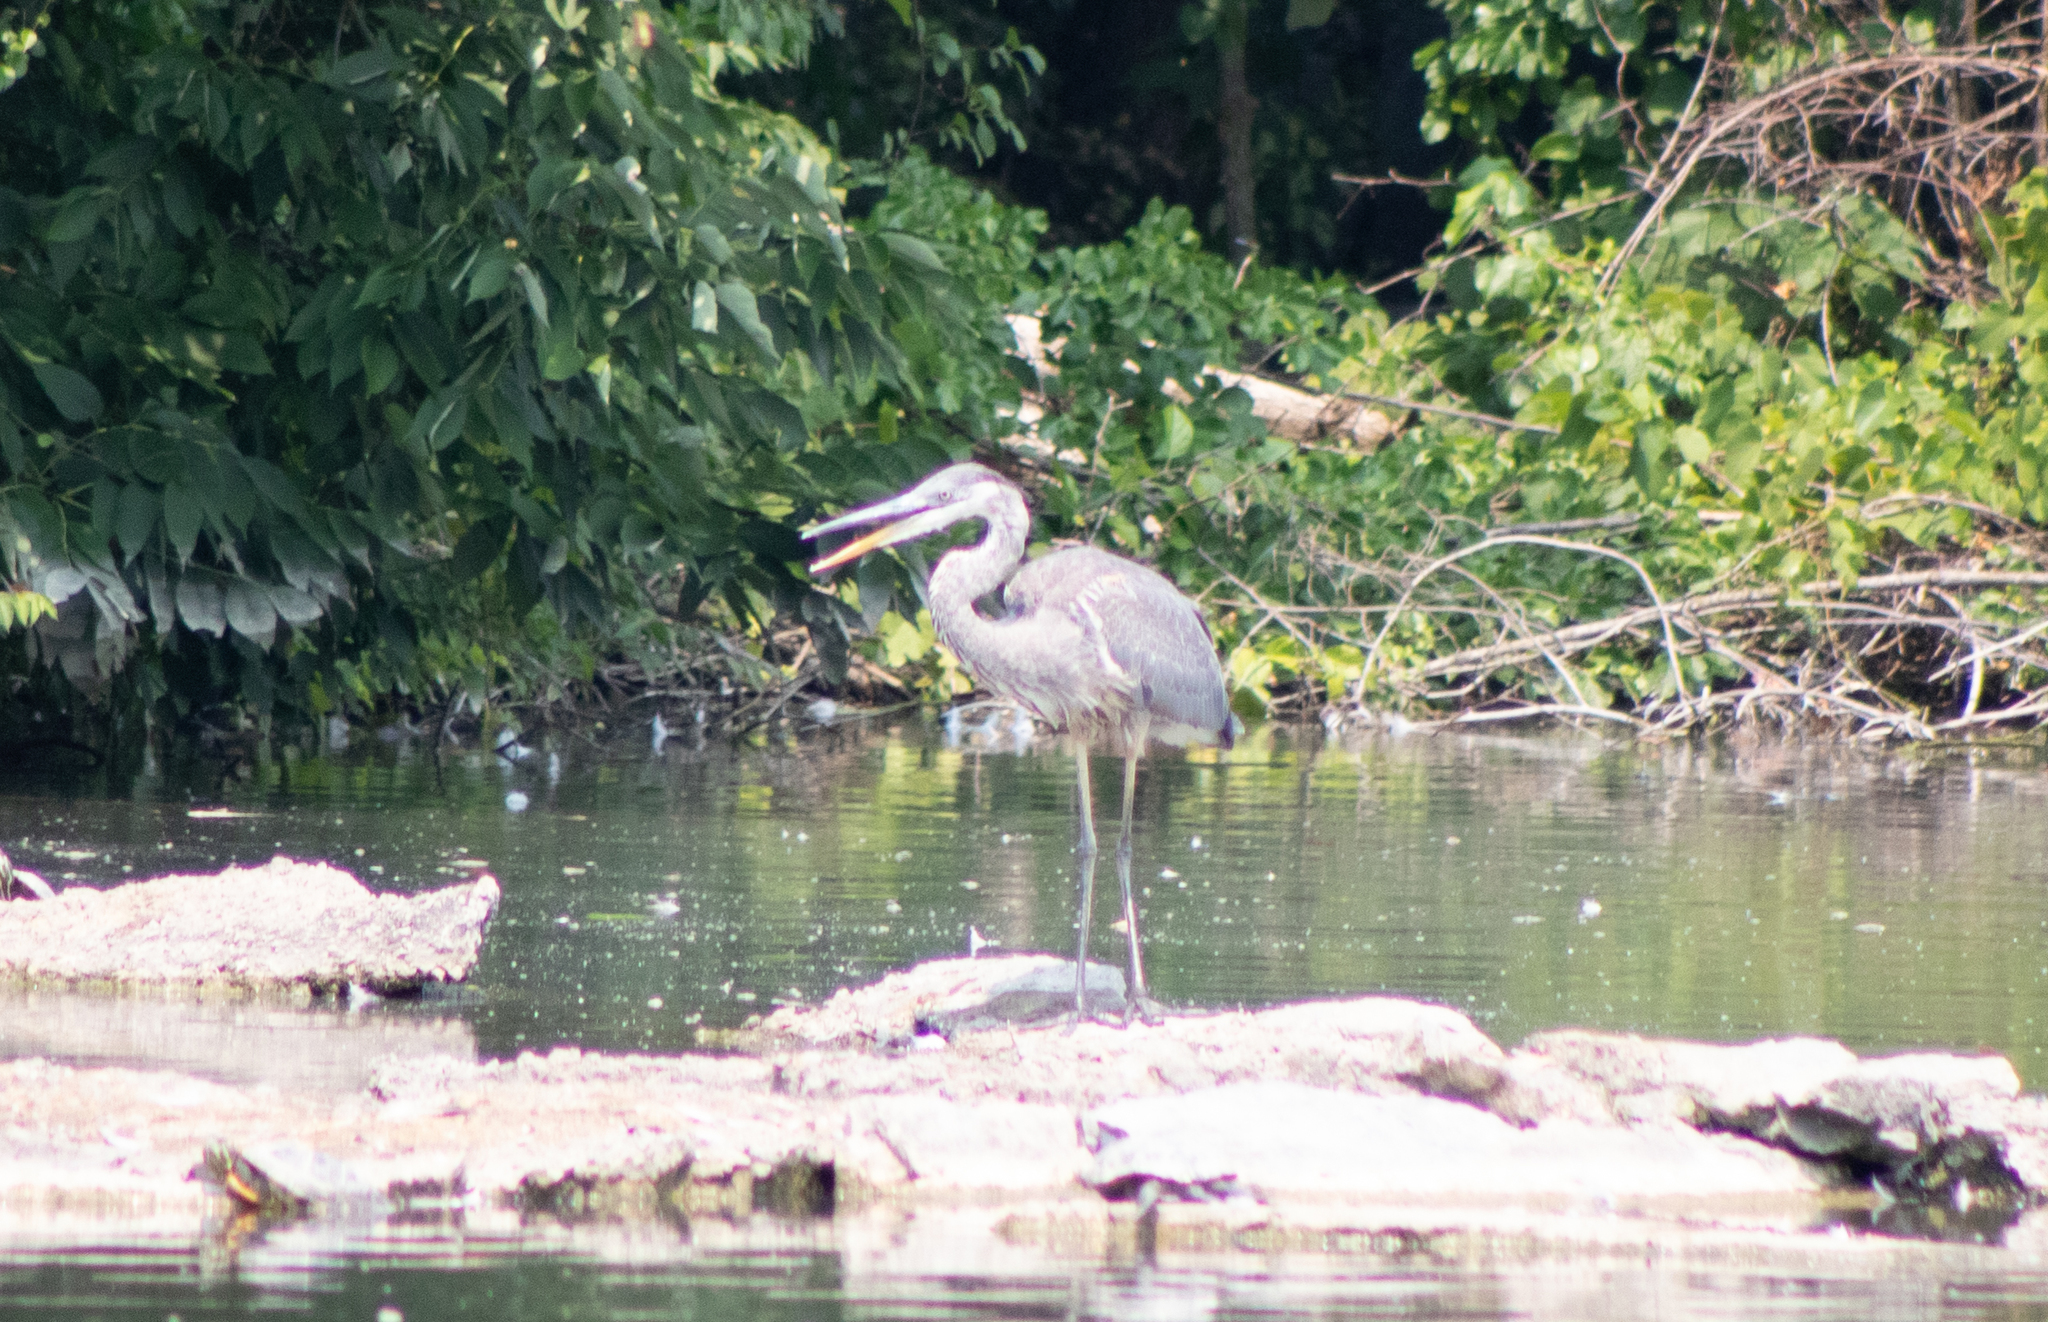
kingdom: Animalia
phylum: Chordata
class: Aves
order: Pelecaniformes
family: Ardeidae
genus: Ardea
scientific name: Ardea herodias
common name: Great blue heron
